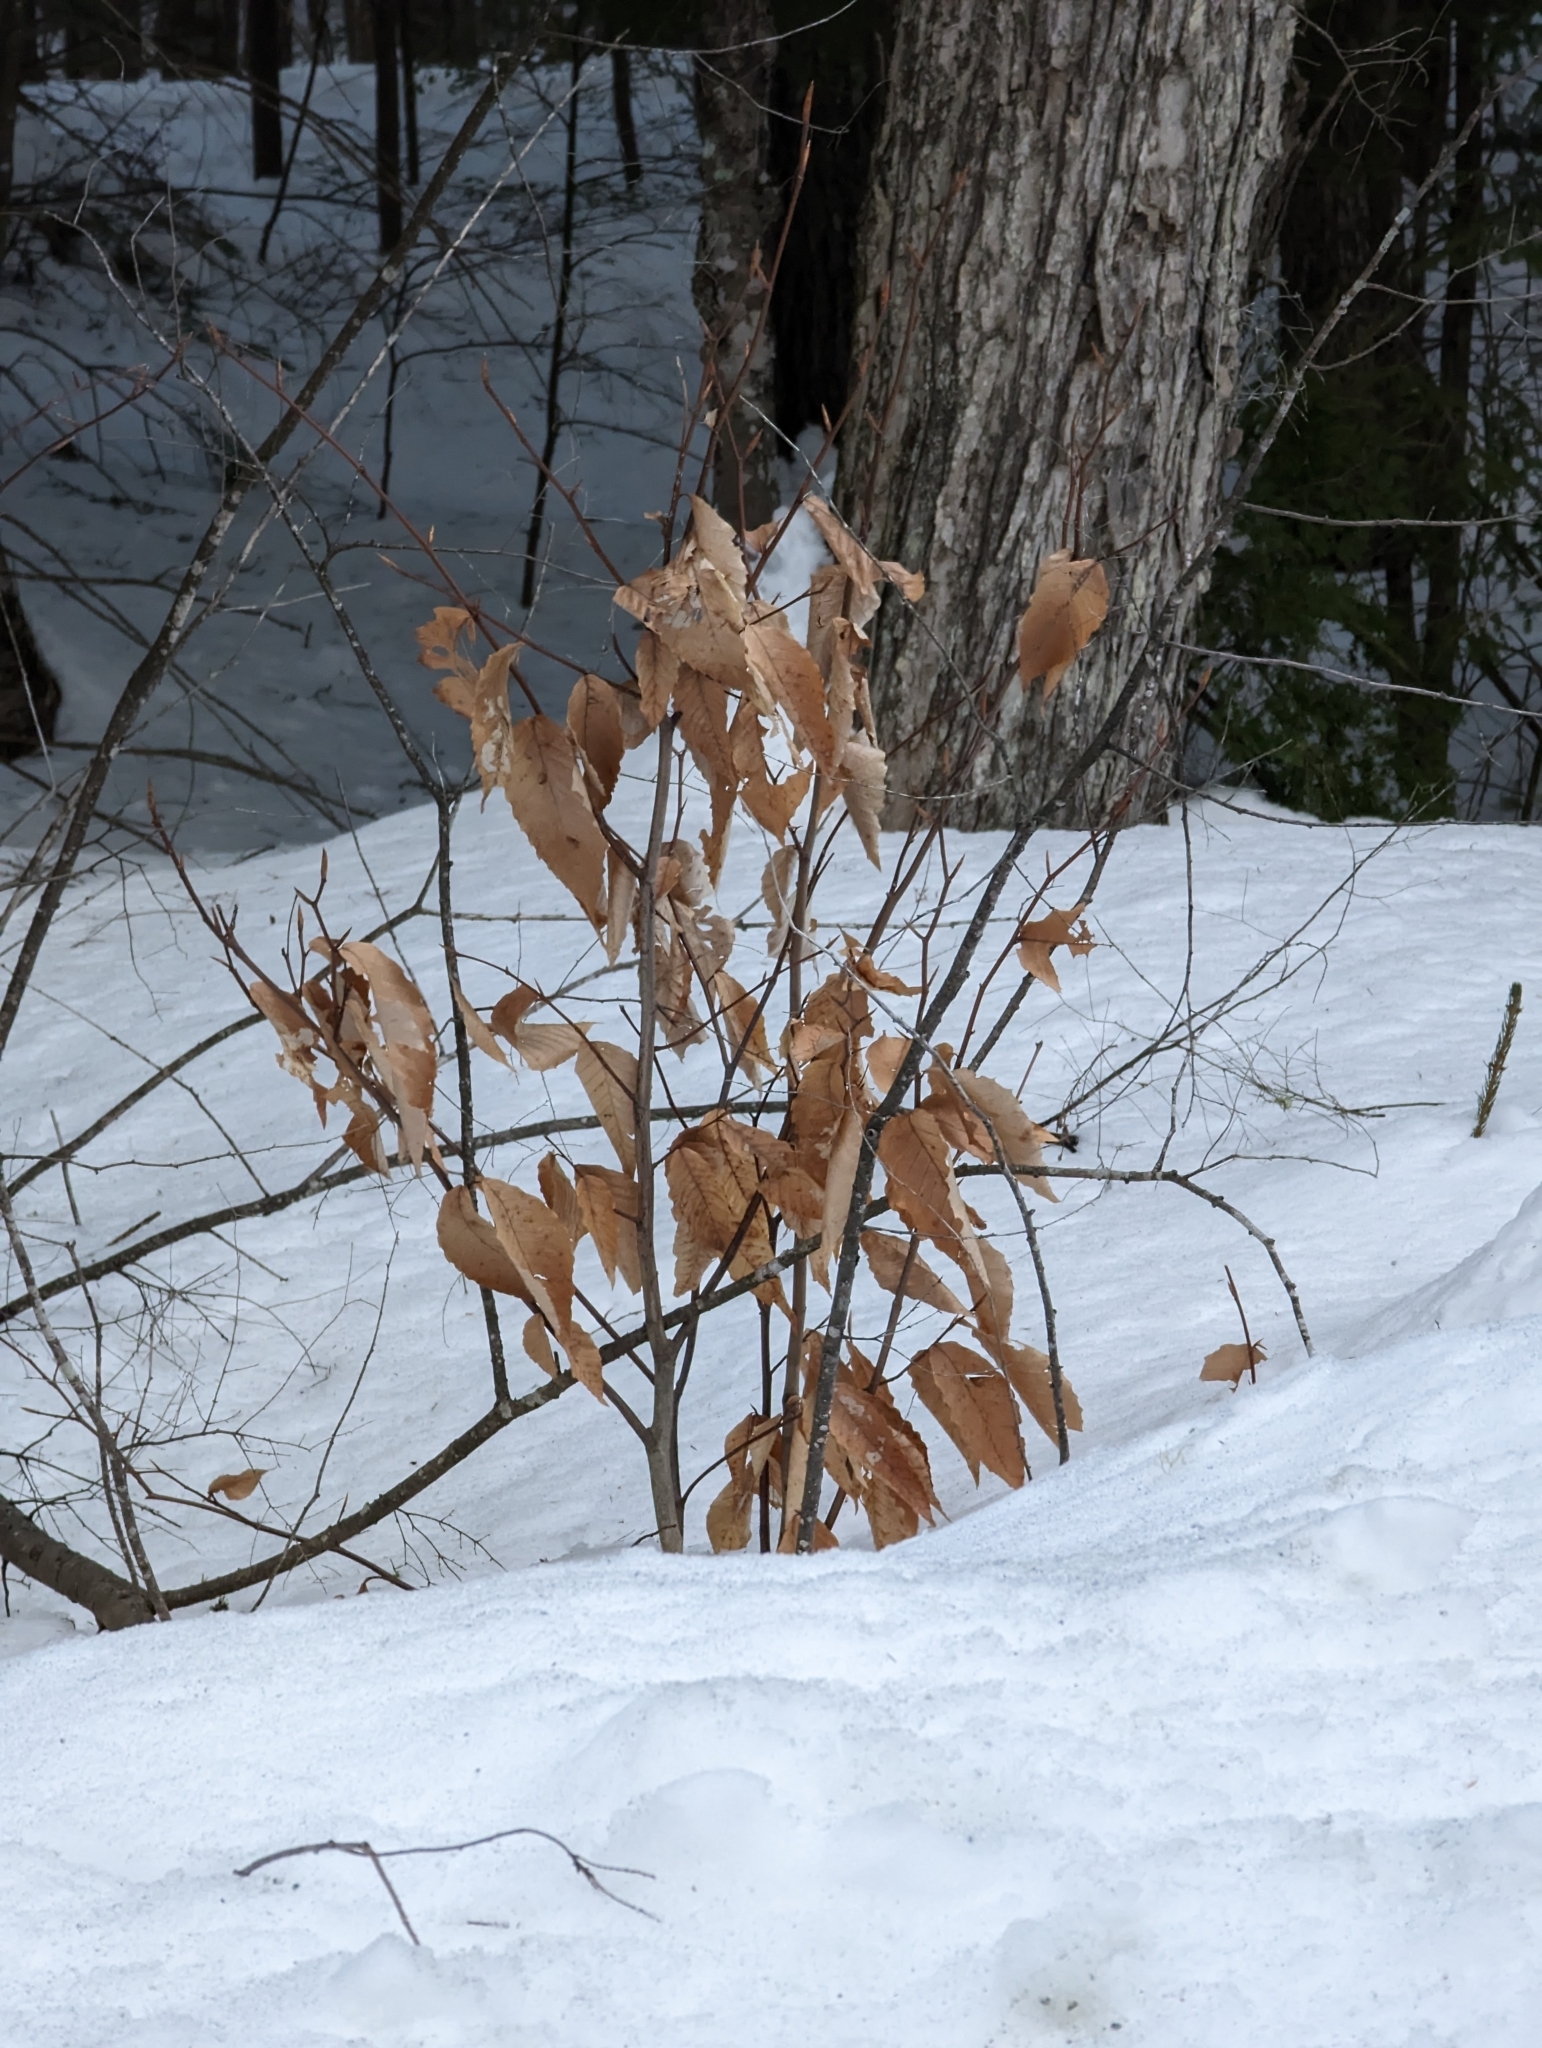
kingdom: Plantae
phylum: Tracheophyta
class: Magnoliopsida
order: Fagales
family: Fagaceae
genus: Fagus
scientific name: Fagus grandifolia
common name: American beech
